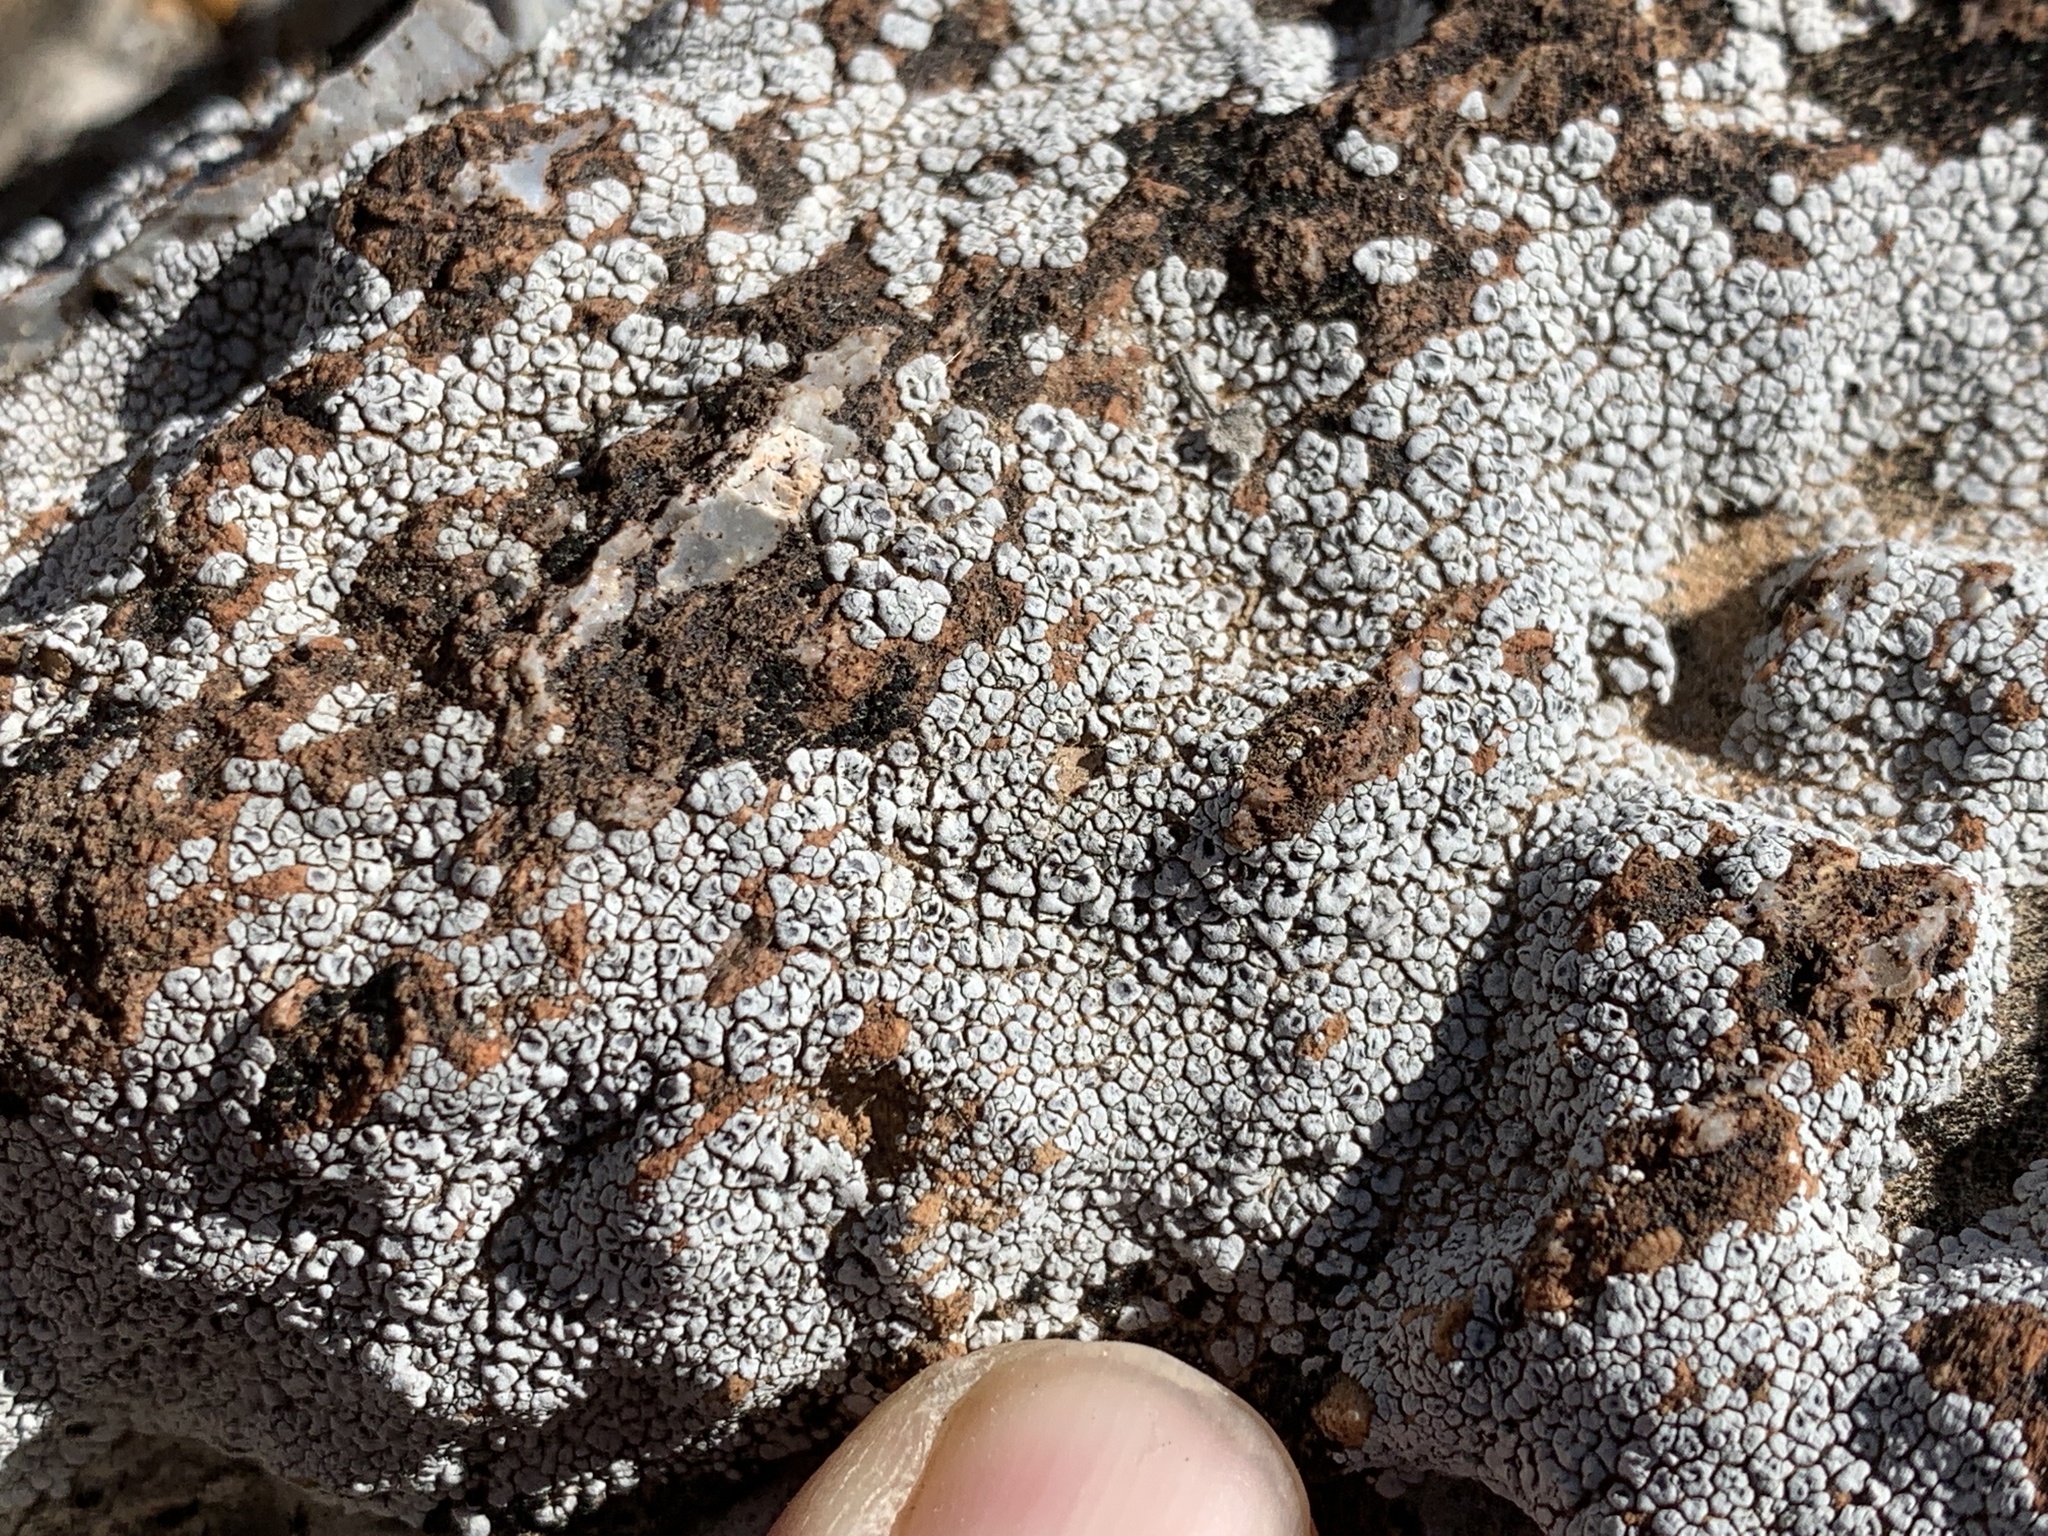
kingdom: Fungi
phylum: Ascomycota
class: Lecanoromycetes
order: Pertusariales
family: Megasporaceae
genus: Aspicilia
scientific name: Aspicilia cinerea
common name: Cinder lichen
